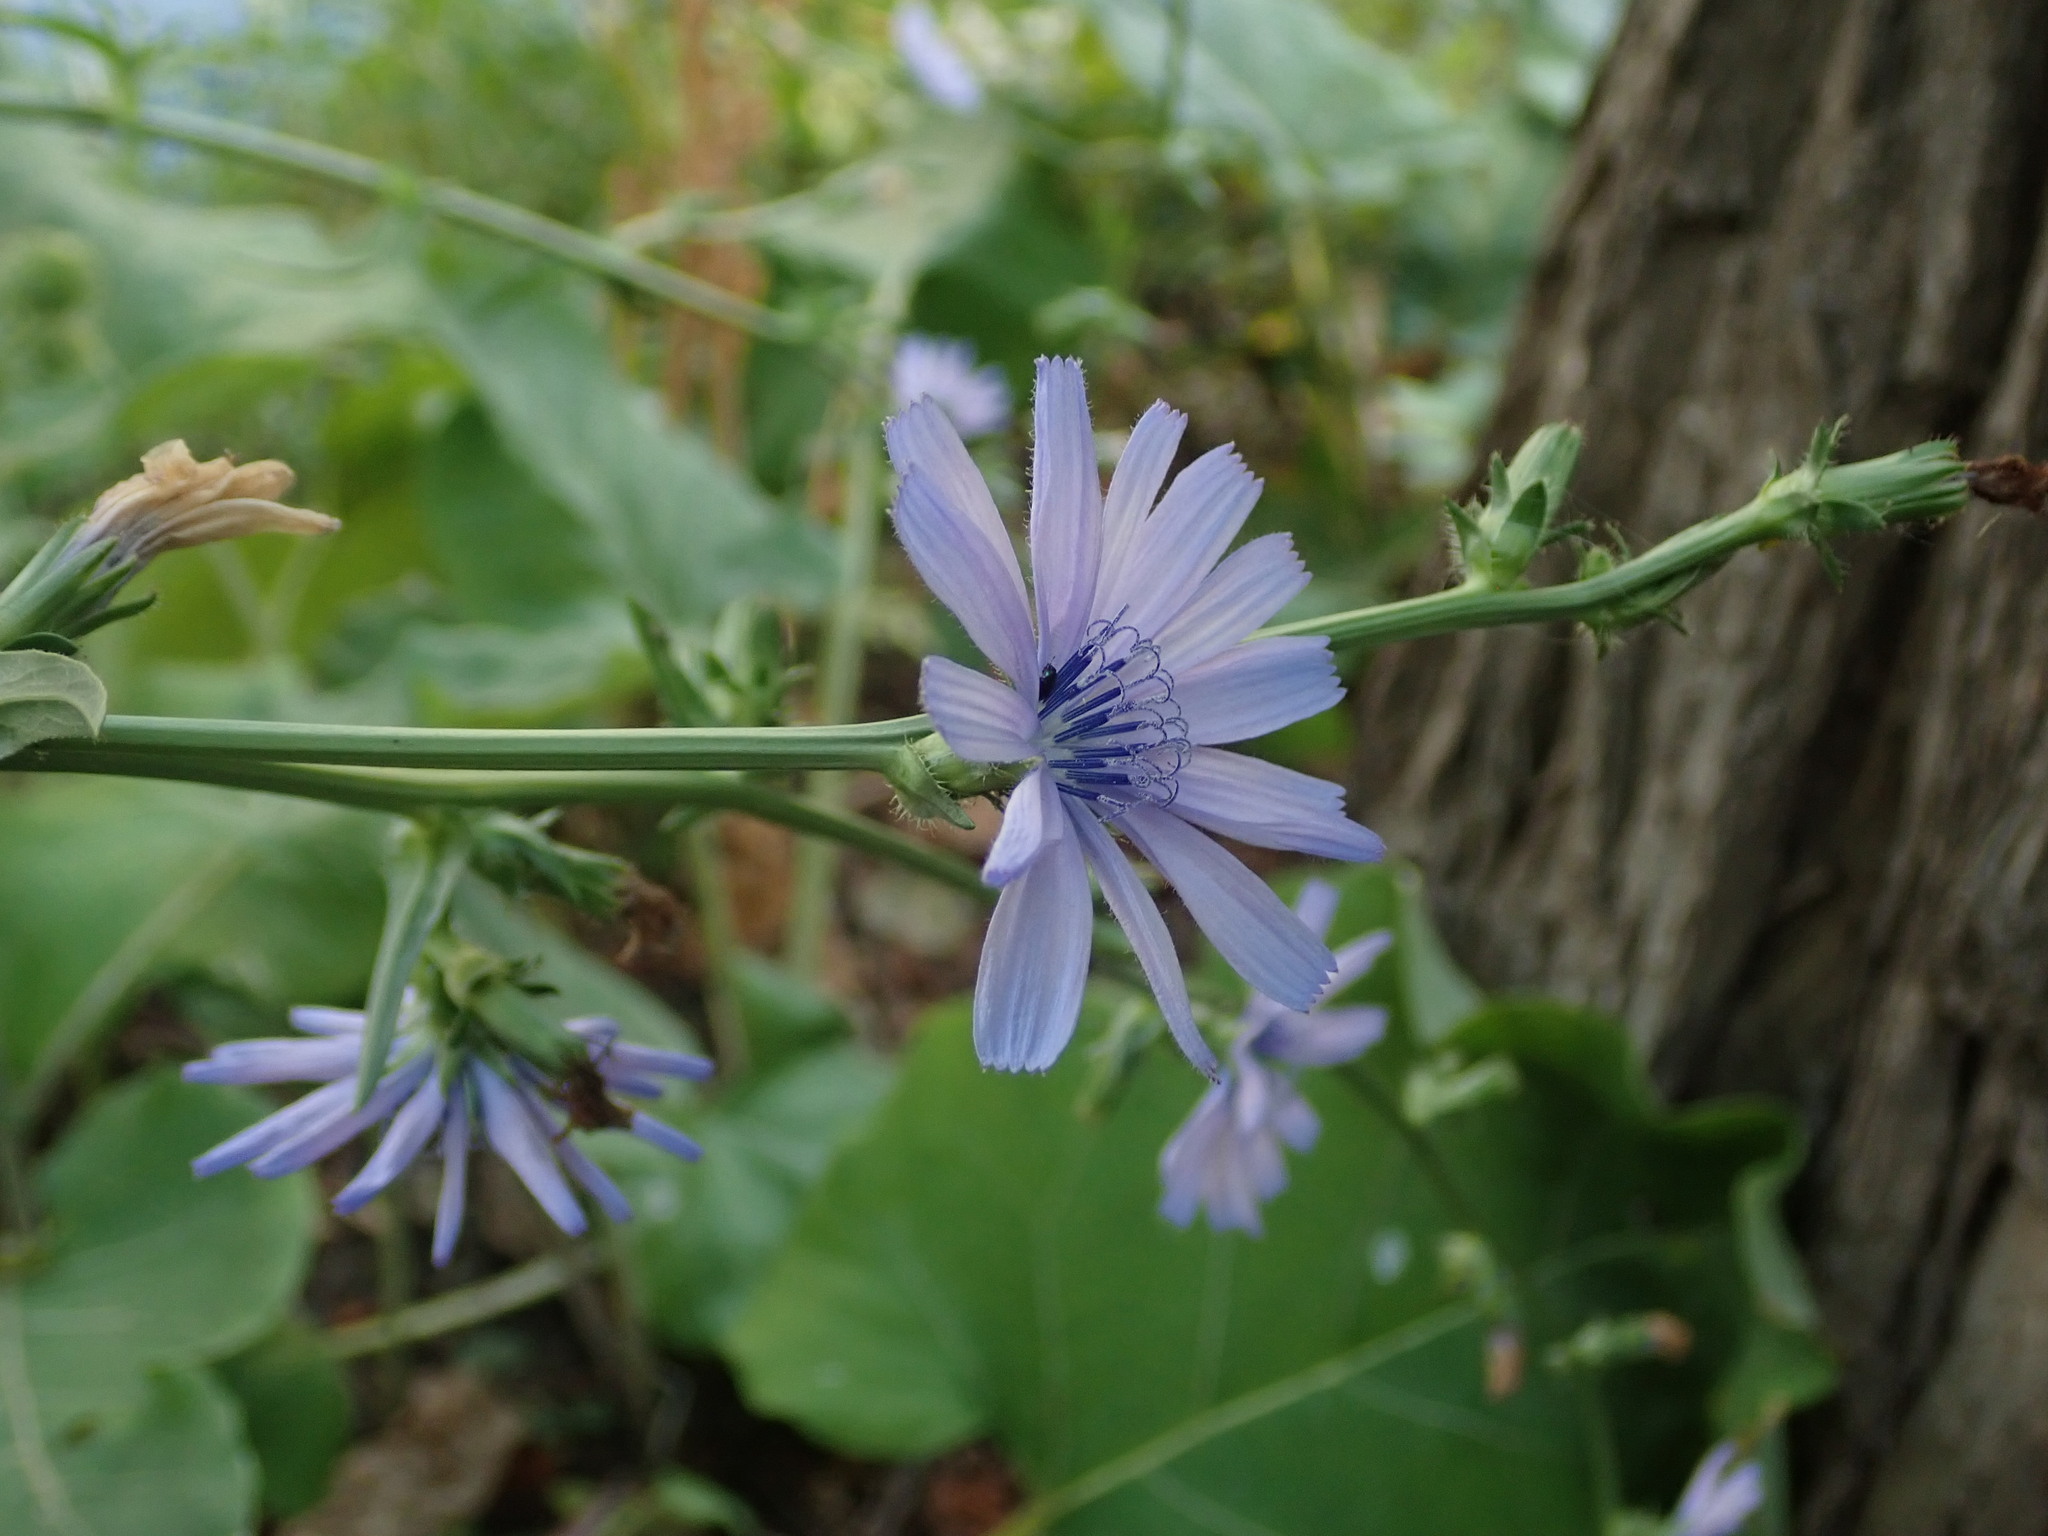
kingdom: Plantae
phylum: Tracheophyta
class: Magnoliopsida
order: Asterales
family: Asteraceae
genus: Cichorium
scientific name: Cichorium intybus
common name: Chicory
